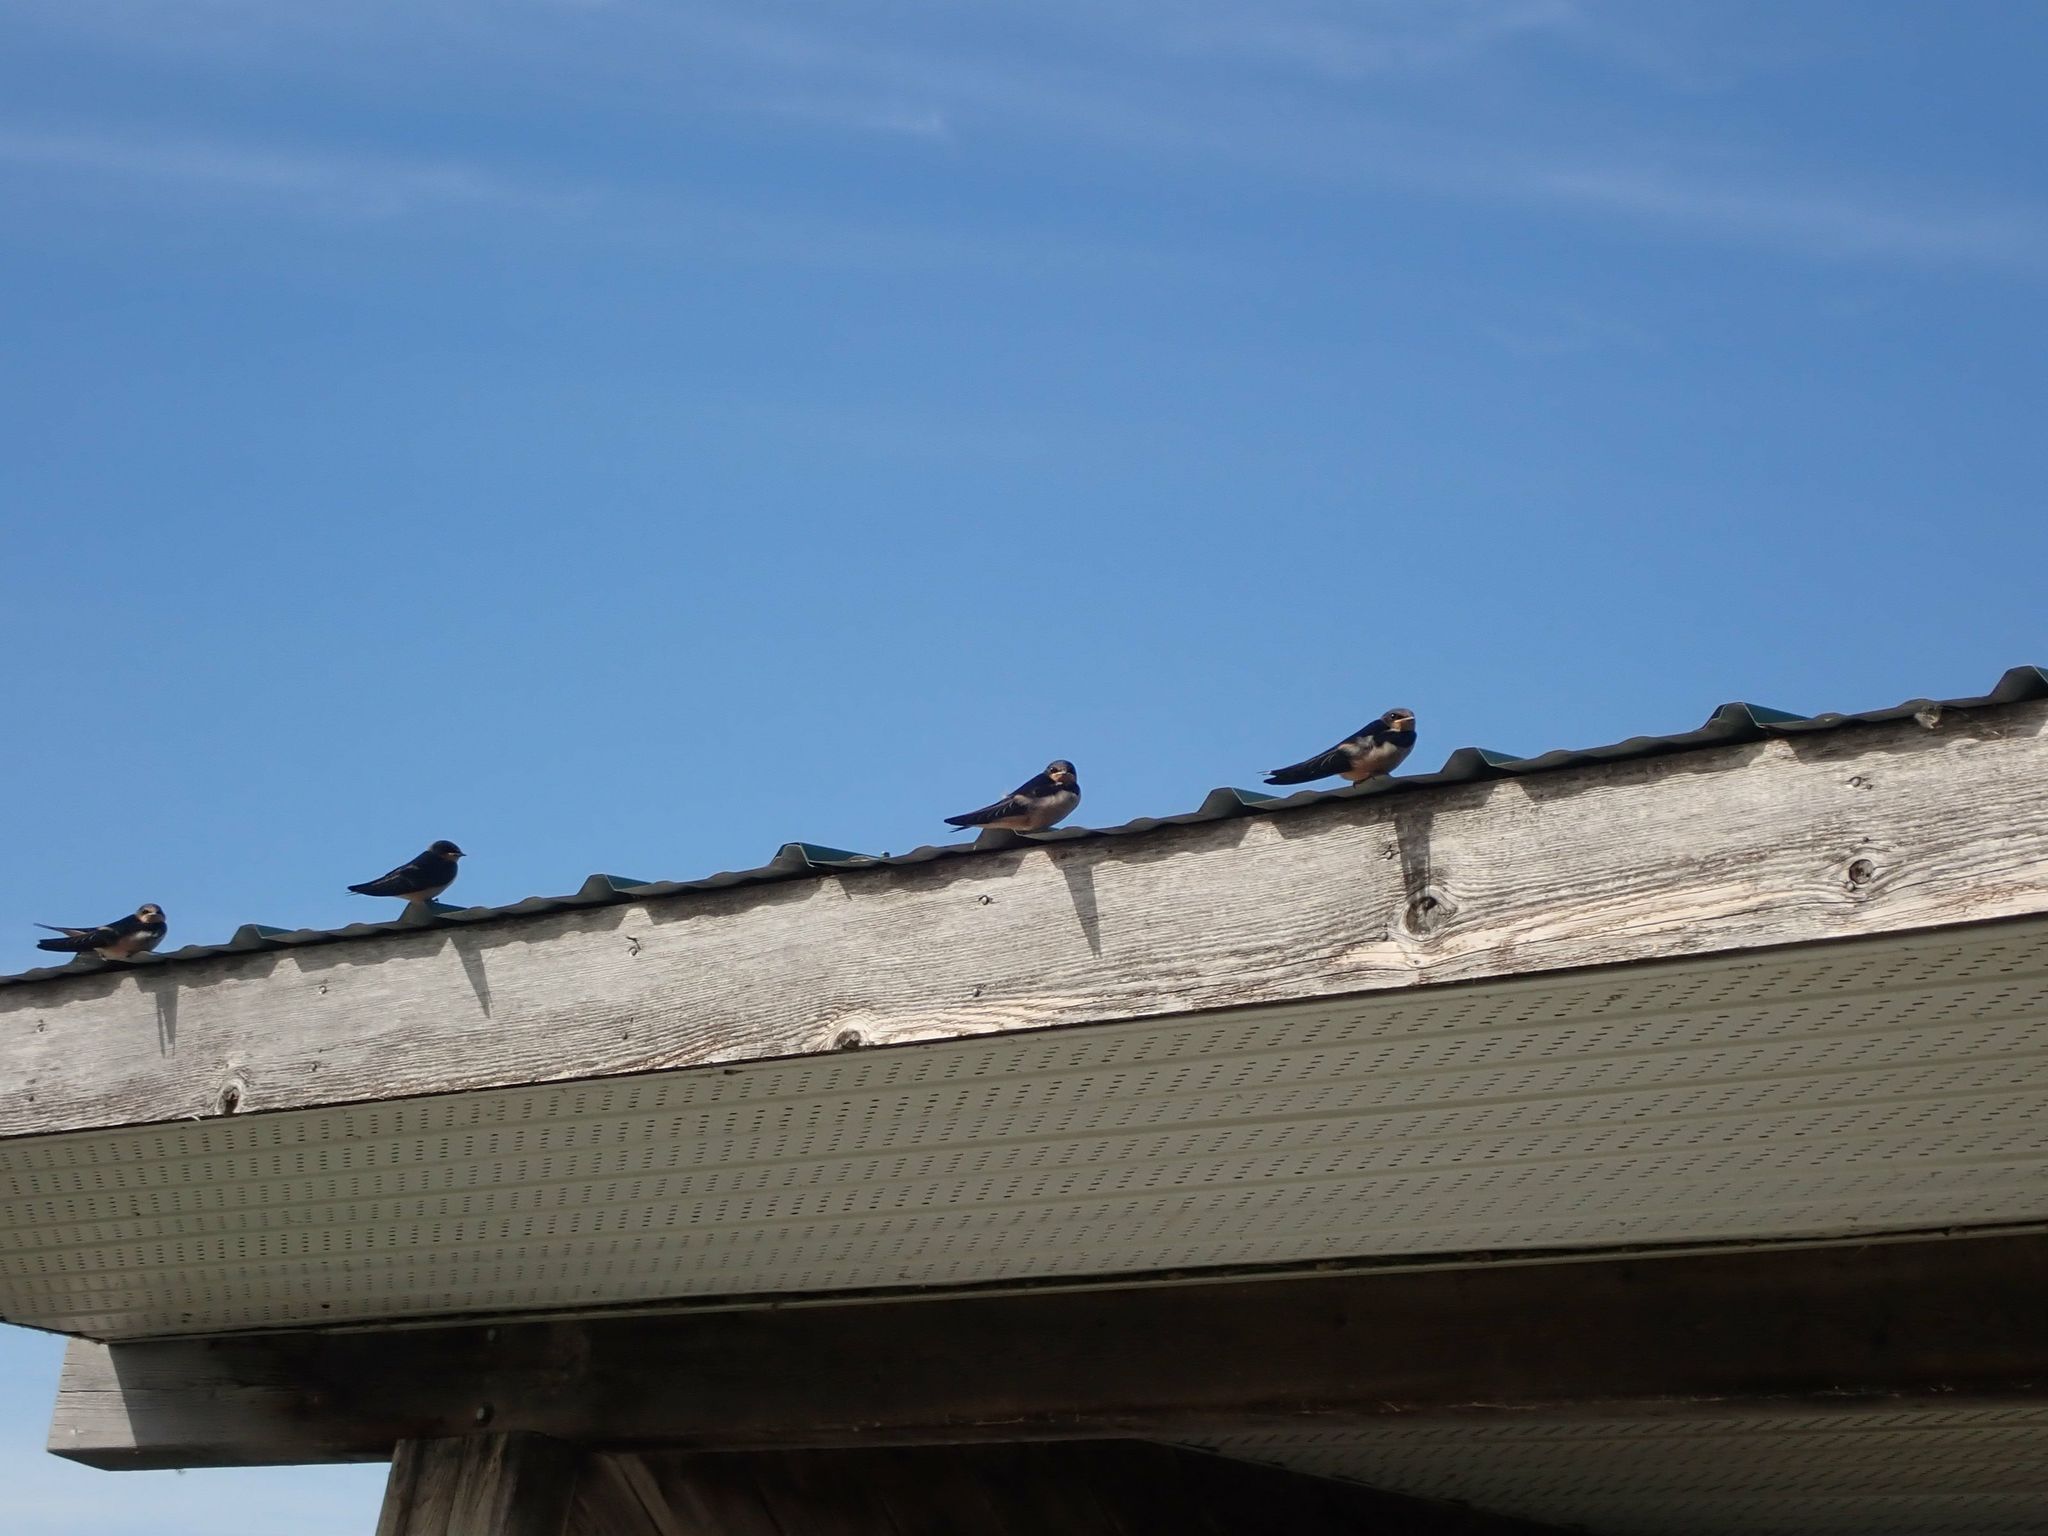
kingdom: Animalia
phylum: Chordata
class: Aves
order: Passeriformes
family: Hirundinidae
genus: Hirundo
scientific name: Hirundo rustica
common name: Barn swallow
